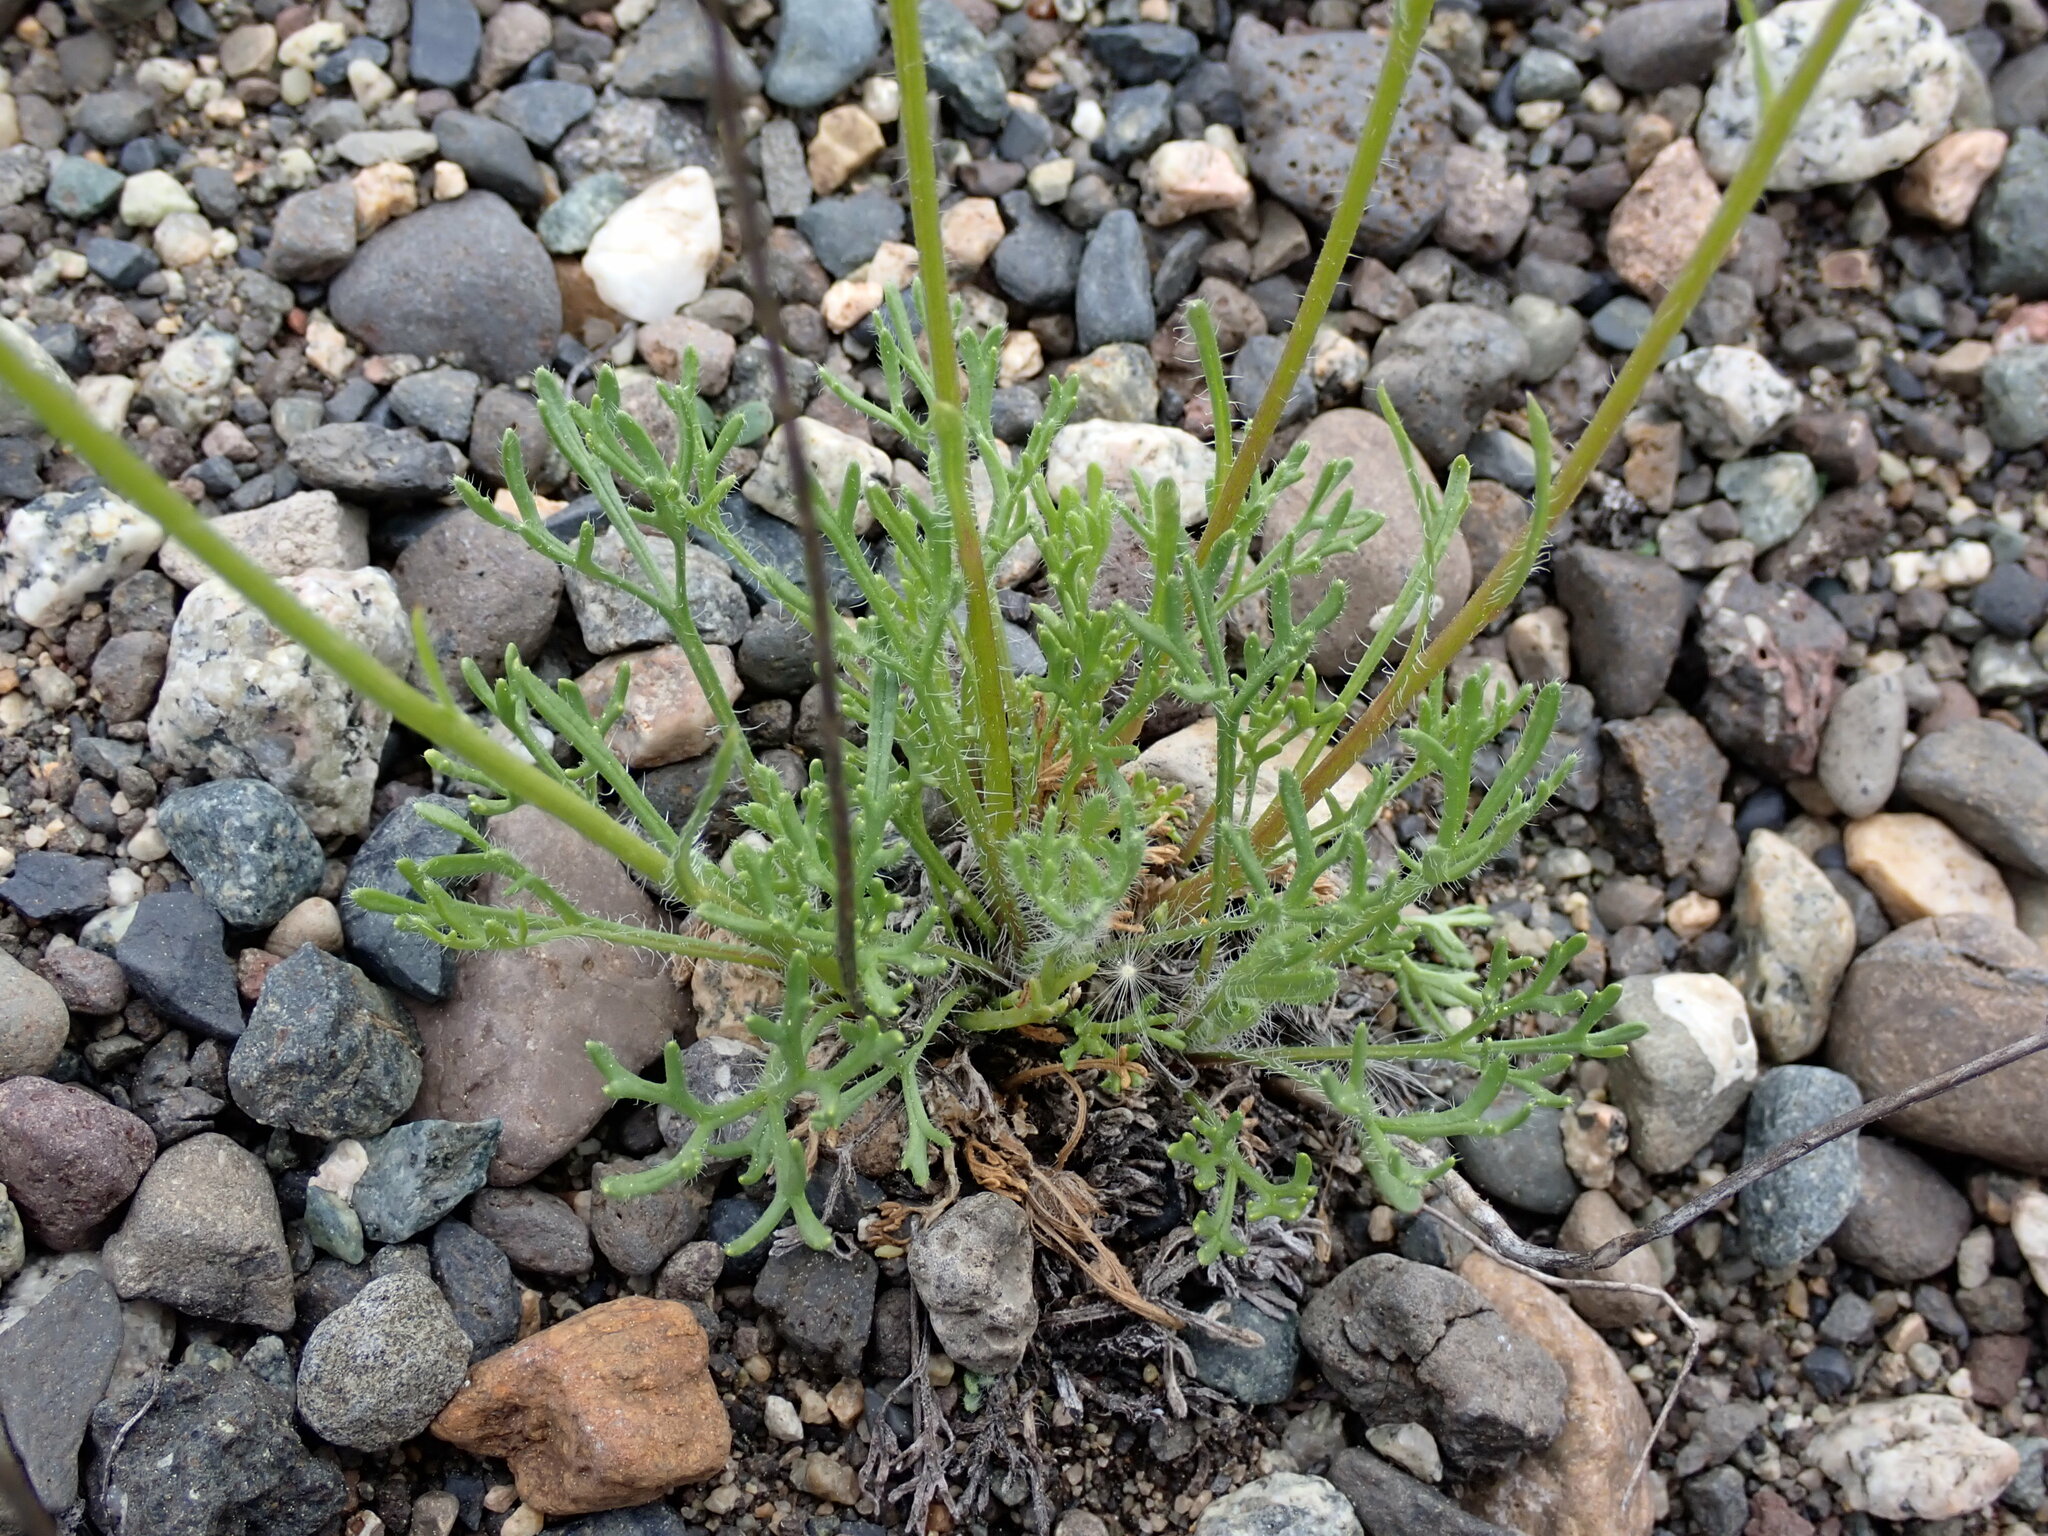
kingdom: Plantae
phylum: Tracheophyta
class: Magnoliopsida
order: Asterales
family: Asteraceae
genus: Erigeron
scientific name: Erigeron compositus
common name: Dwarf mountain fleabane
